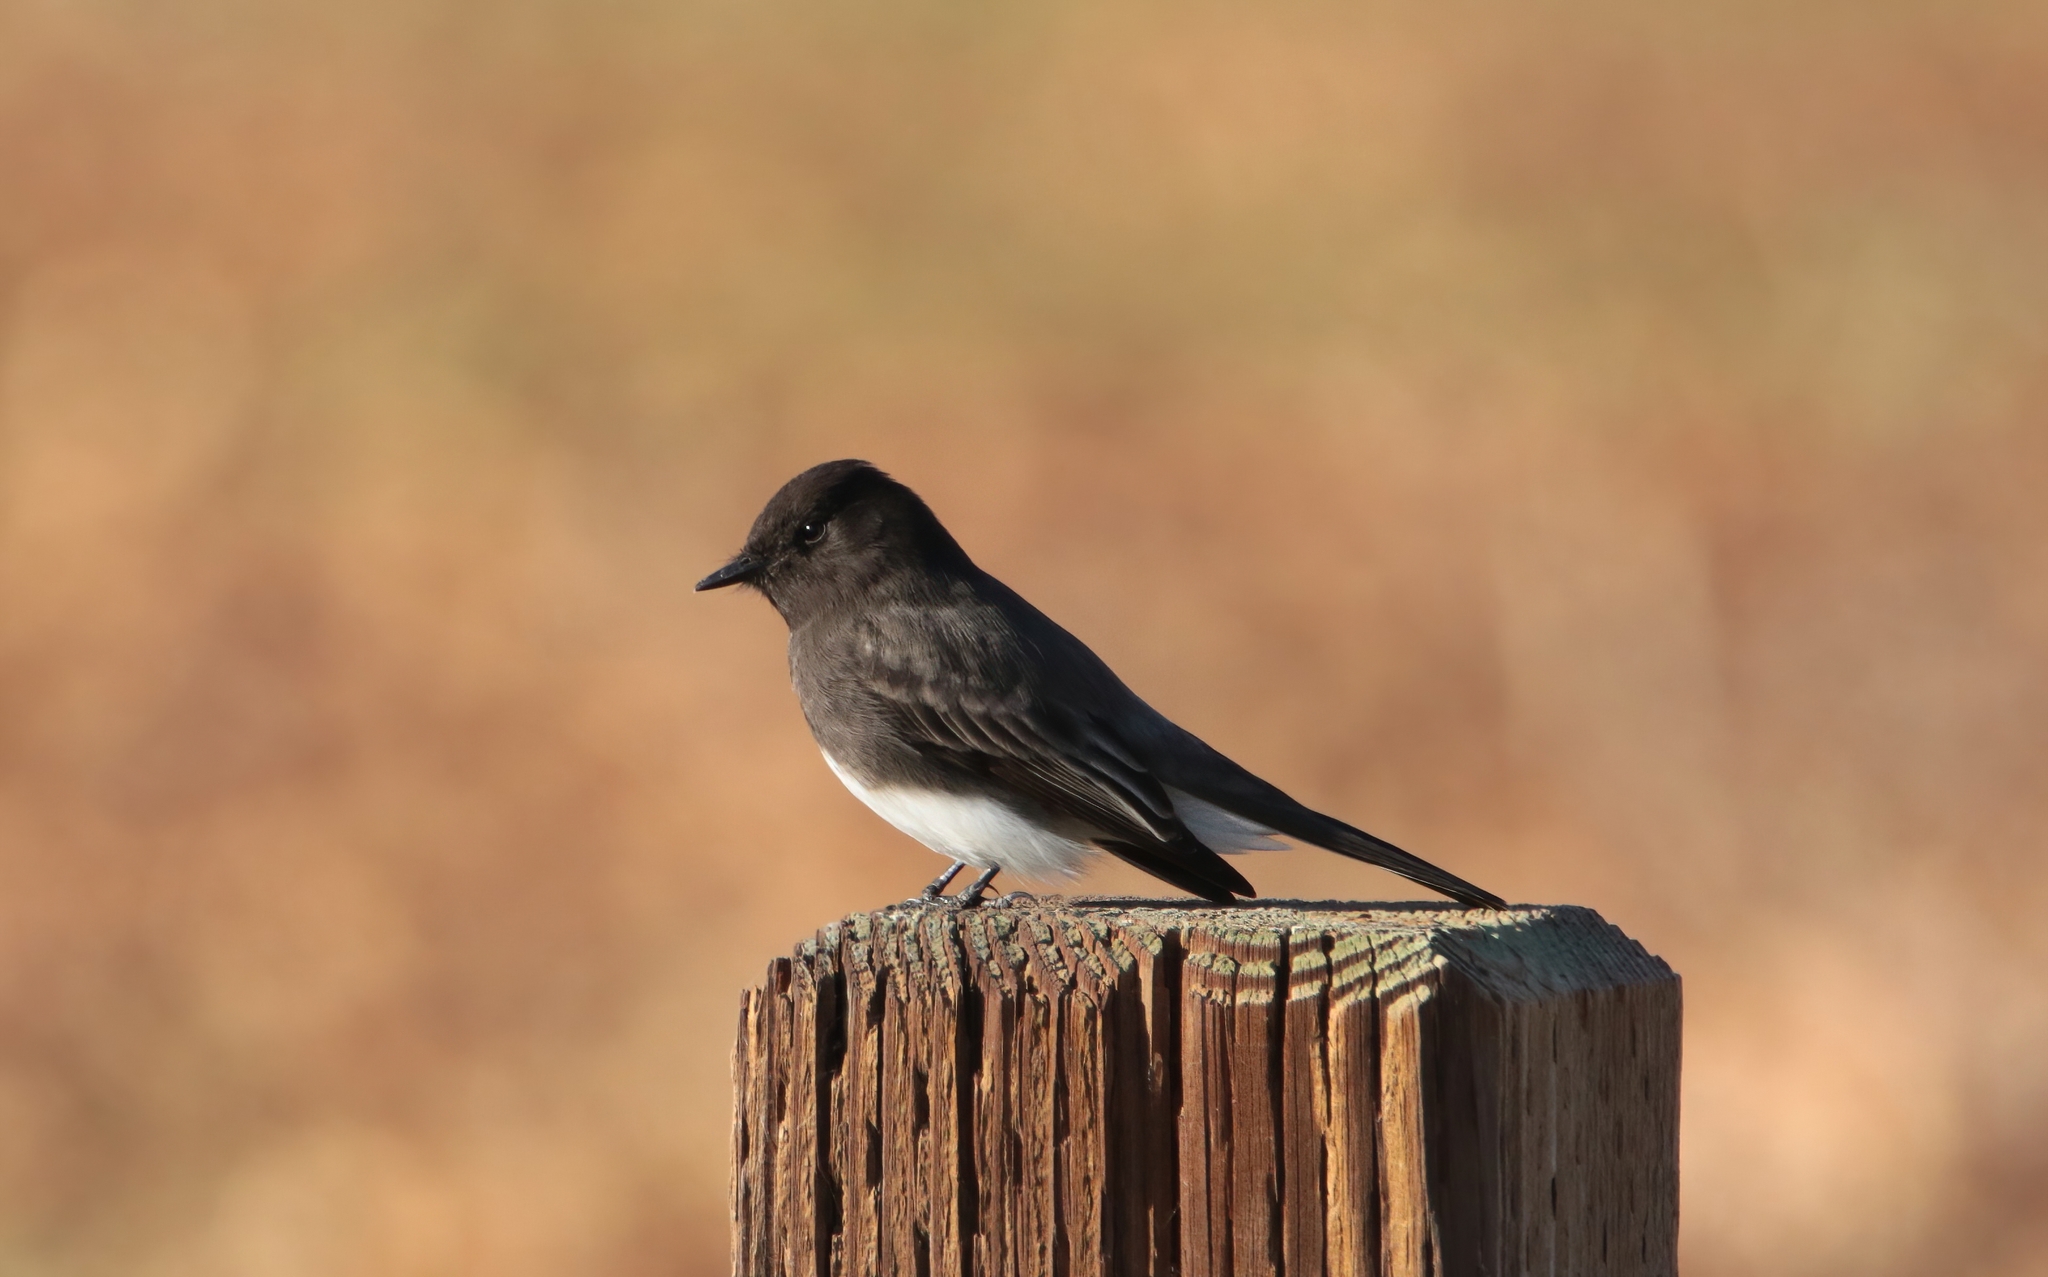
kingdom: Animalia
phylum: Chordata
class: Aves
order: Passeriformes
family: Tyrannidae
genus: Sayornis
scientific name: Sayornis nigricans
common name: Black phoebe
